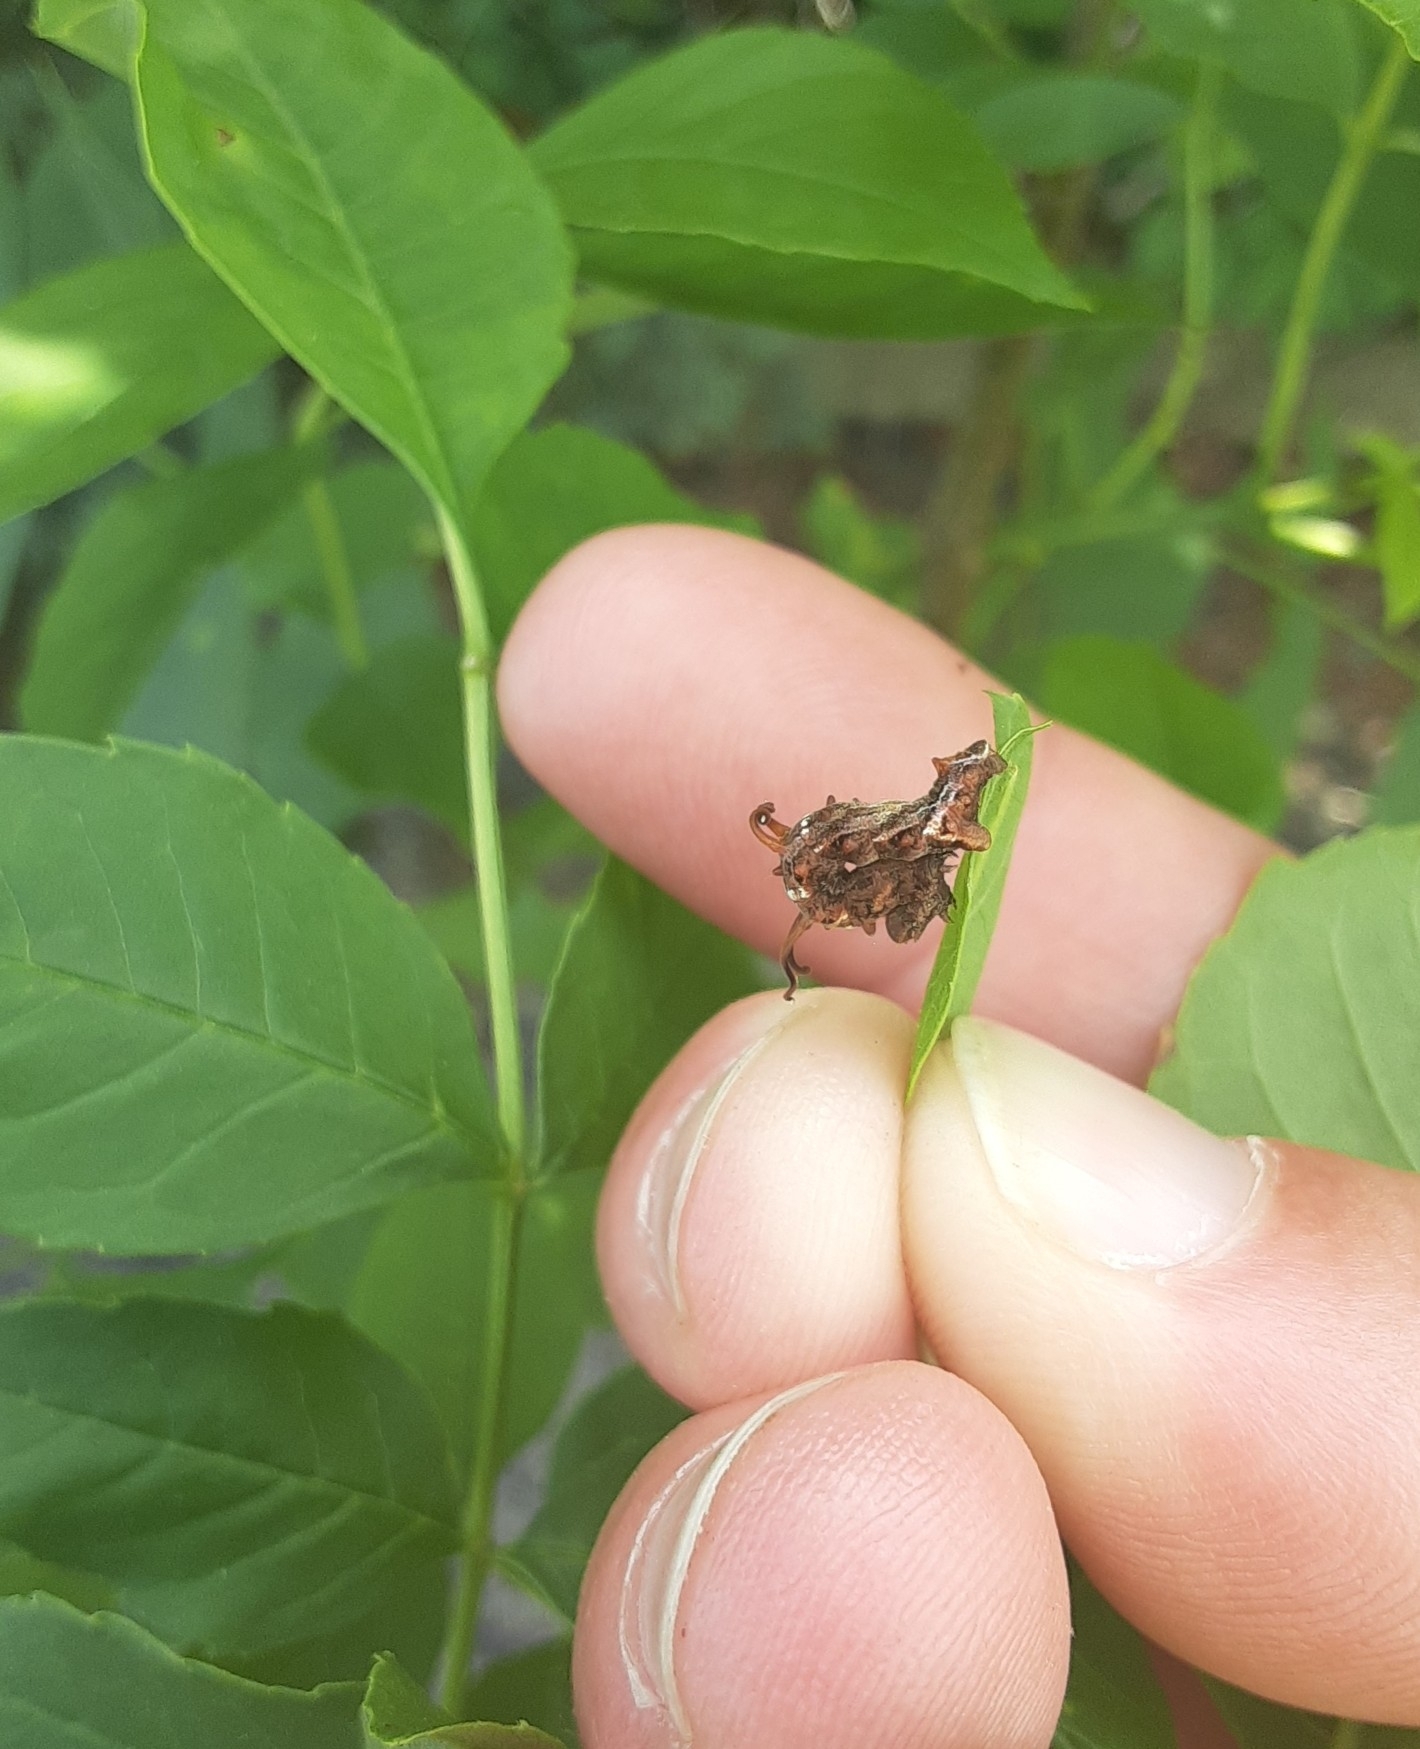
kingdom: Animalia
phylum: Arthropoda
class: Insecta
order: Lepidoptera
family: Geometridae
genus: Nematocampa
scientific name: Nematocampa resistaria
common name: Horned spanworm moth
